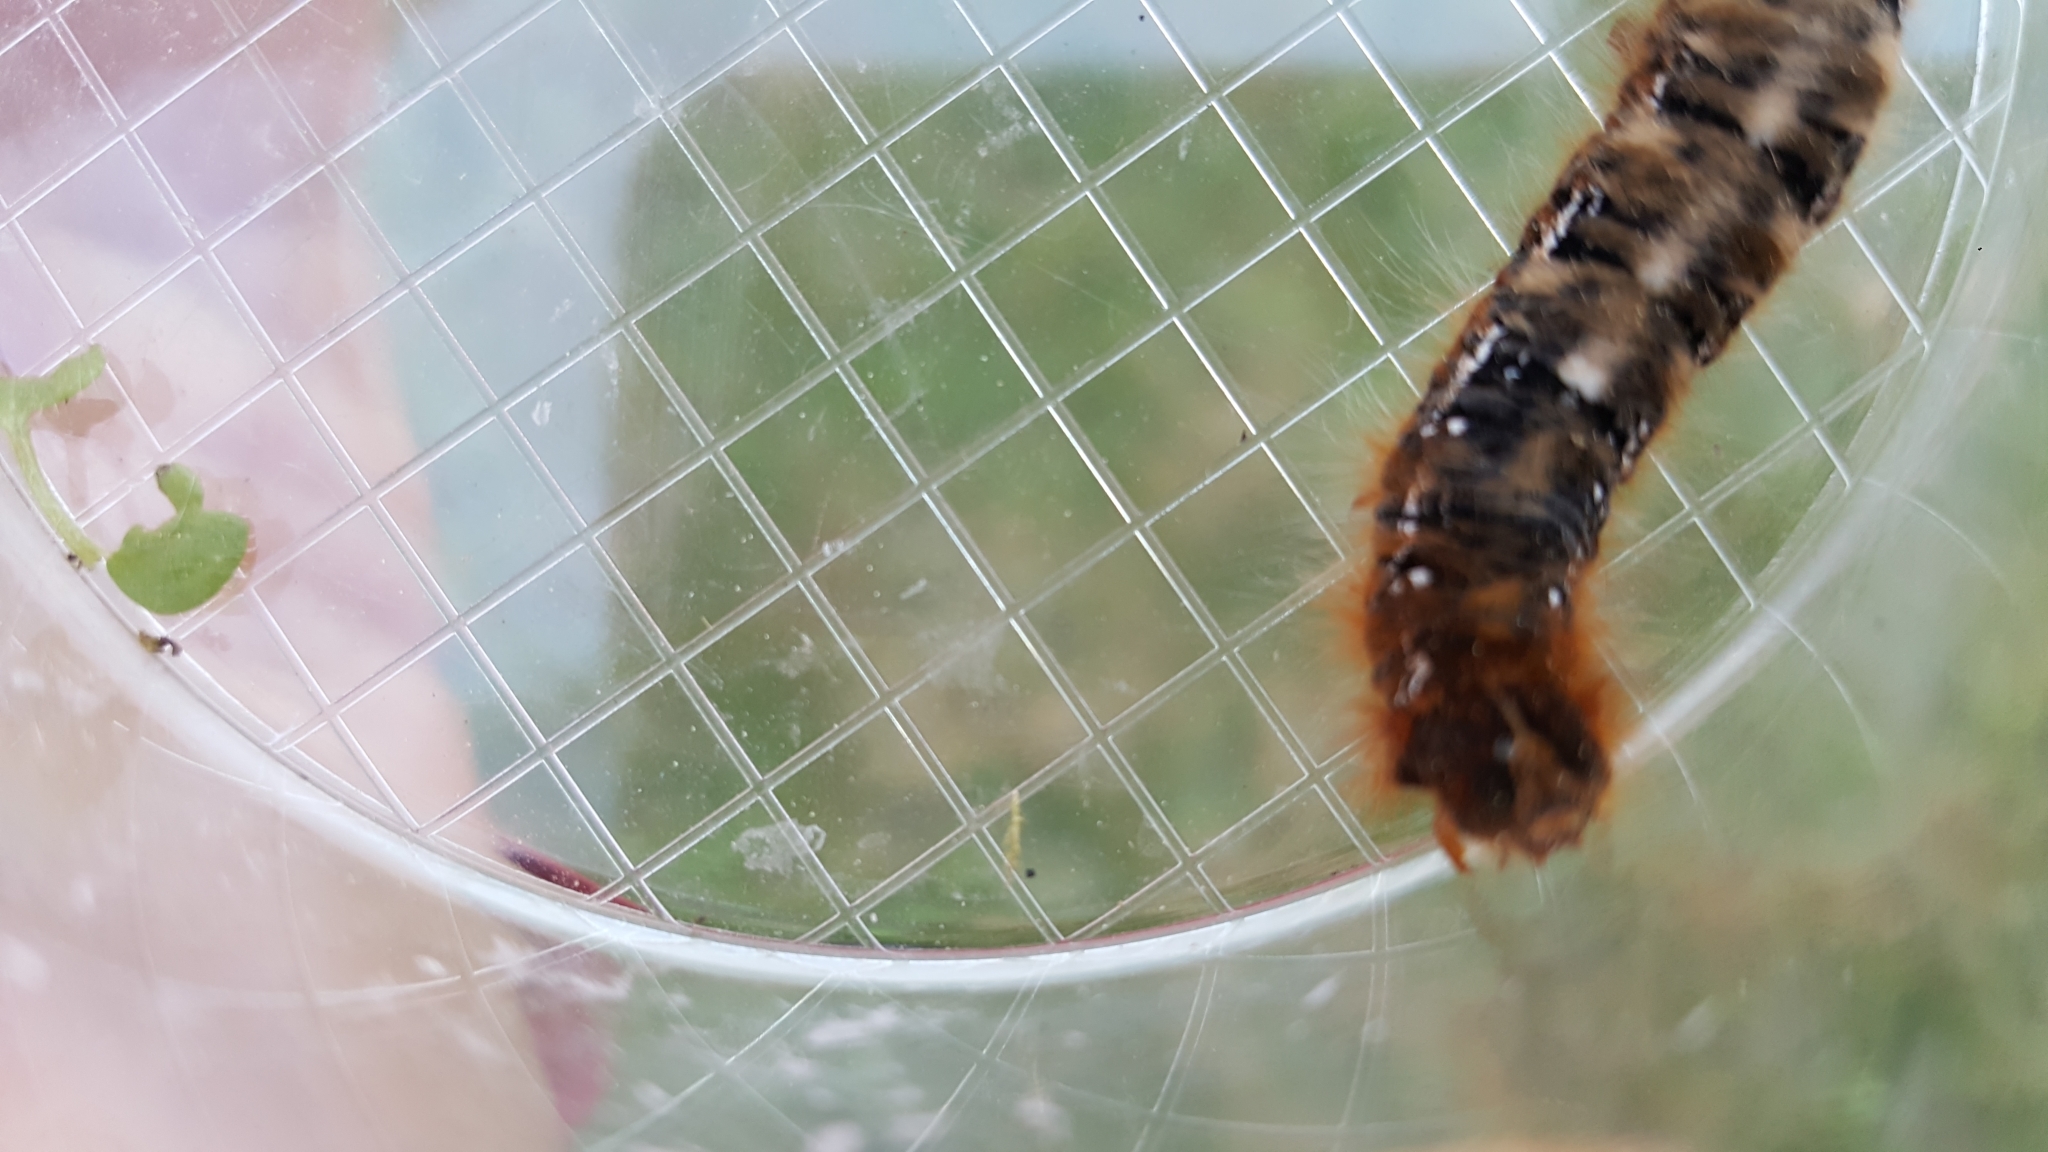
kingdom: Animalia
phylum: Arthropoda
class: Insecta
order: Lepidoptera
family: Lasiocampidae
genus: Lasiocampa
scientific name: Lasiocampa quercus
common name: Oak eggar
